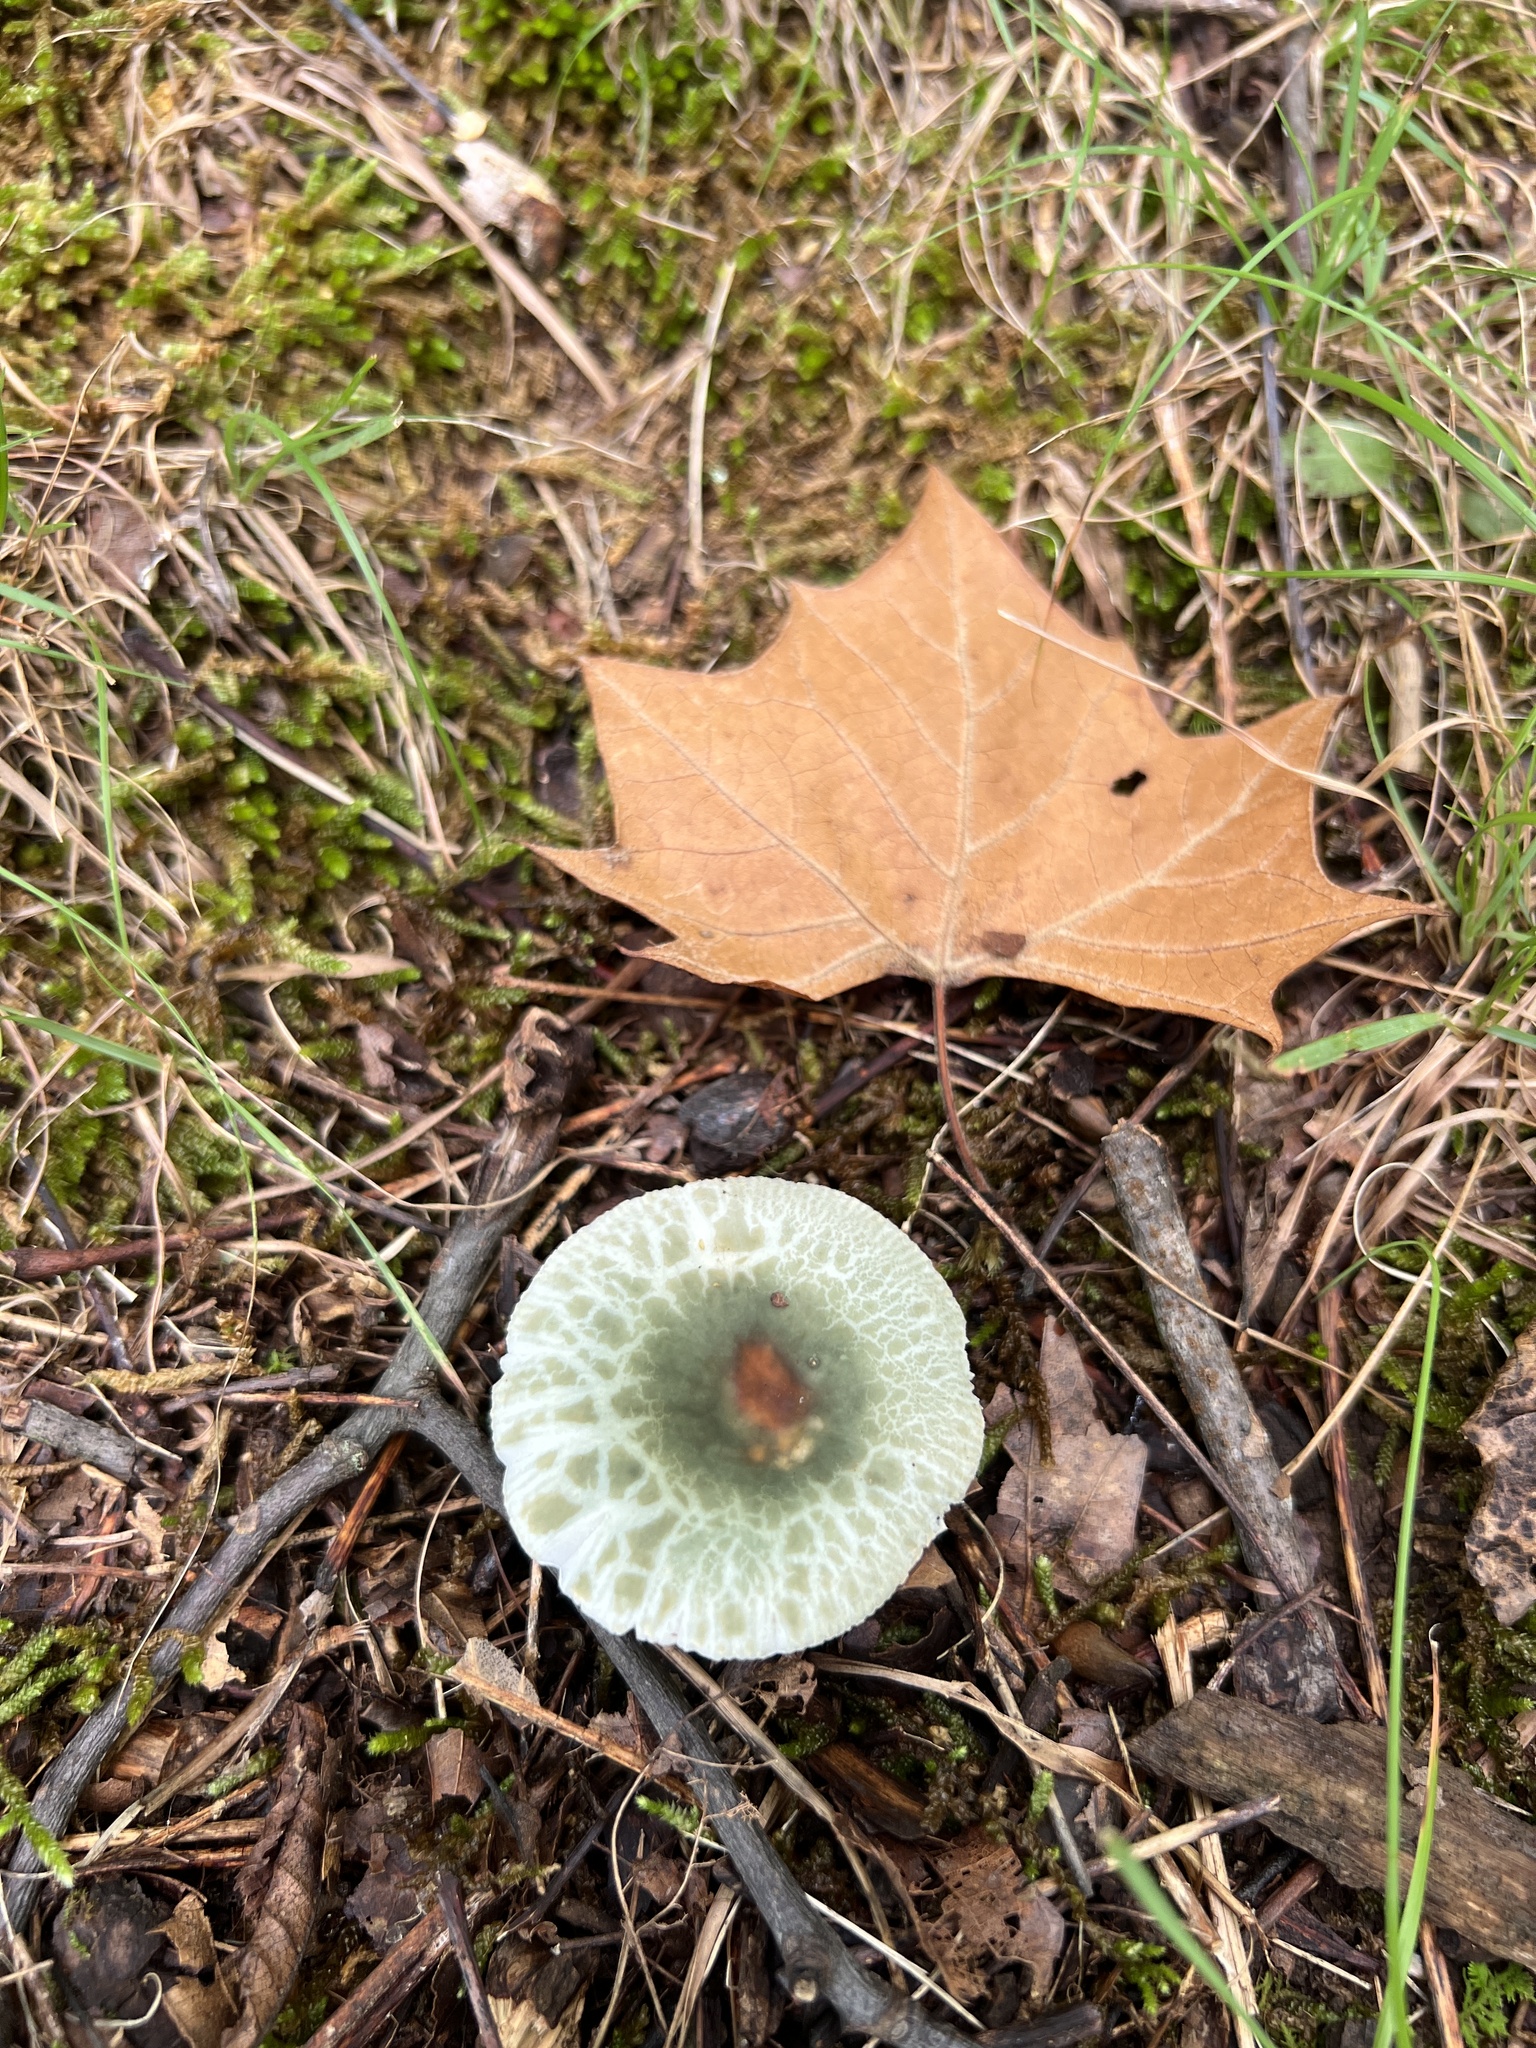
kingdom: Fungi
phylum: Basidiomycota
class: Agaricomycetes
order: Russulales
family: Russulaceae
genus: Russula
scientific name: Russula parvovirescens
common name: Blue-green cracking russula
